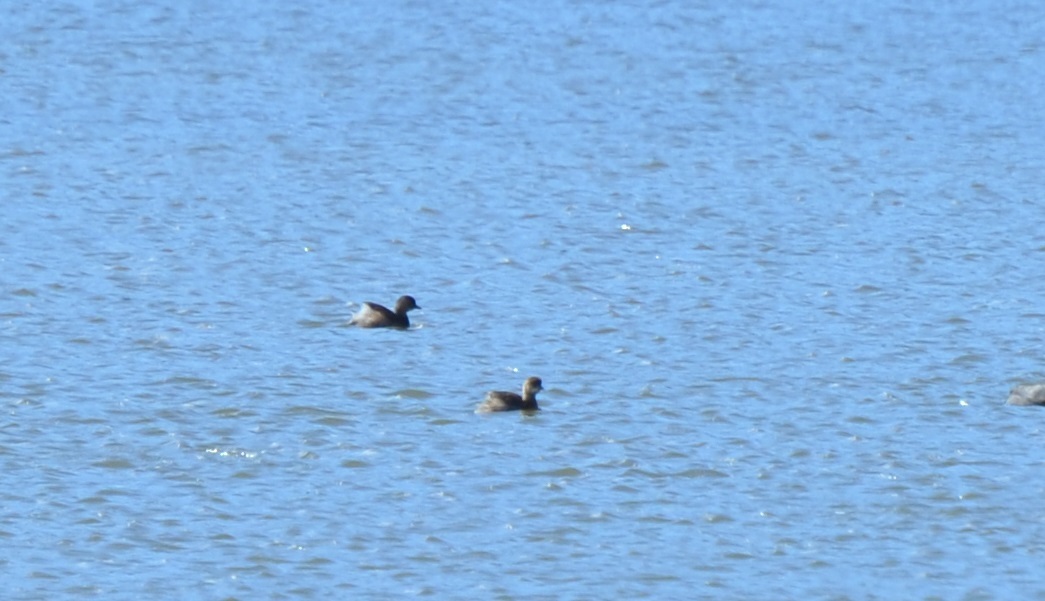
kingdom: Animalia
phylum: Chordata
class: Aves
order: Podicipediformes
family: Podicipedidae
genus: Tachybaptus
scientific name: Tachybaptus ruficollis
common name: Little grebe
